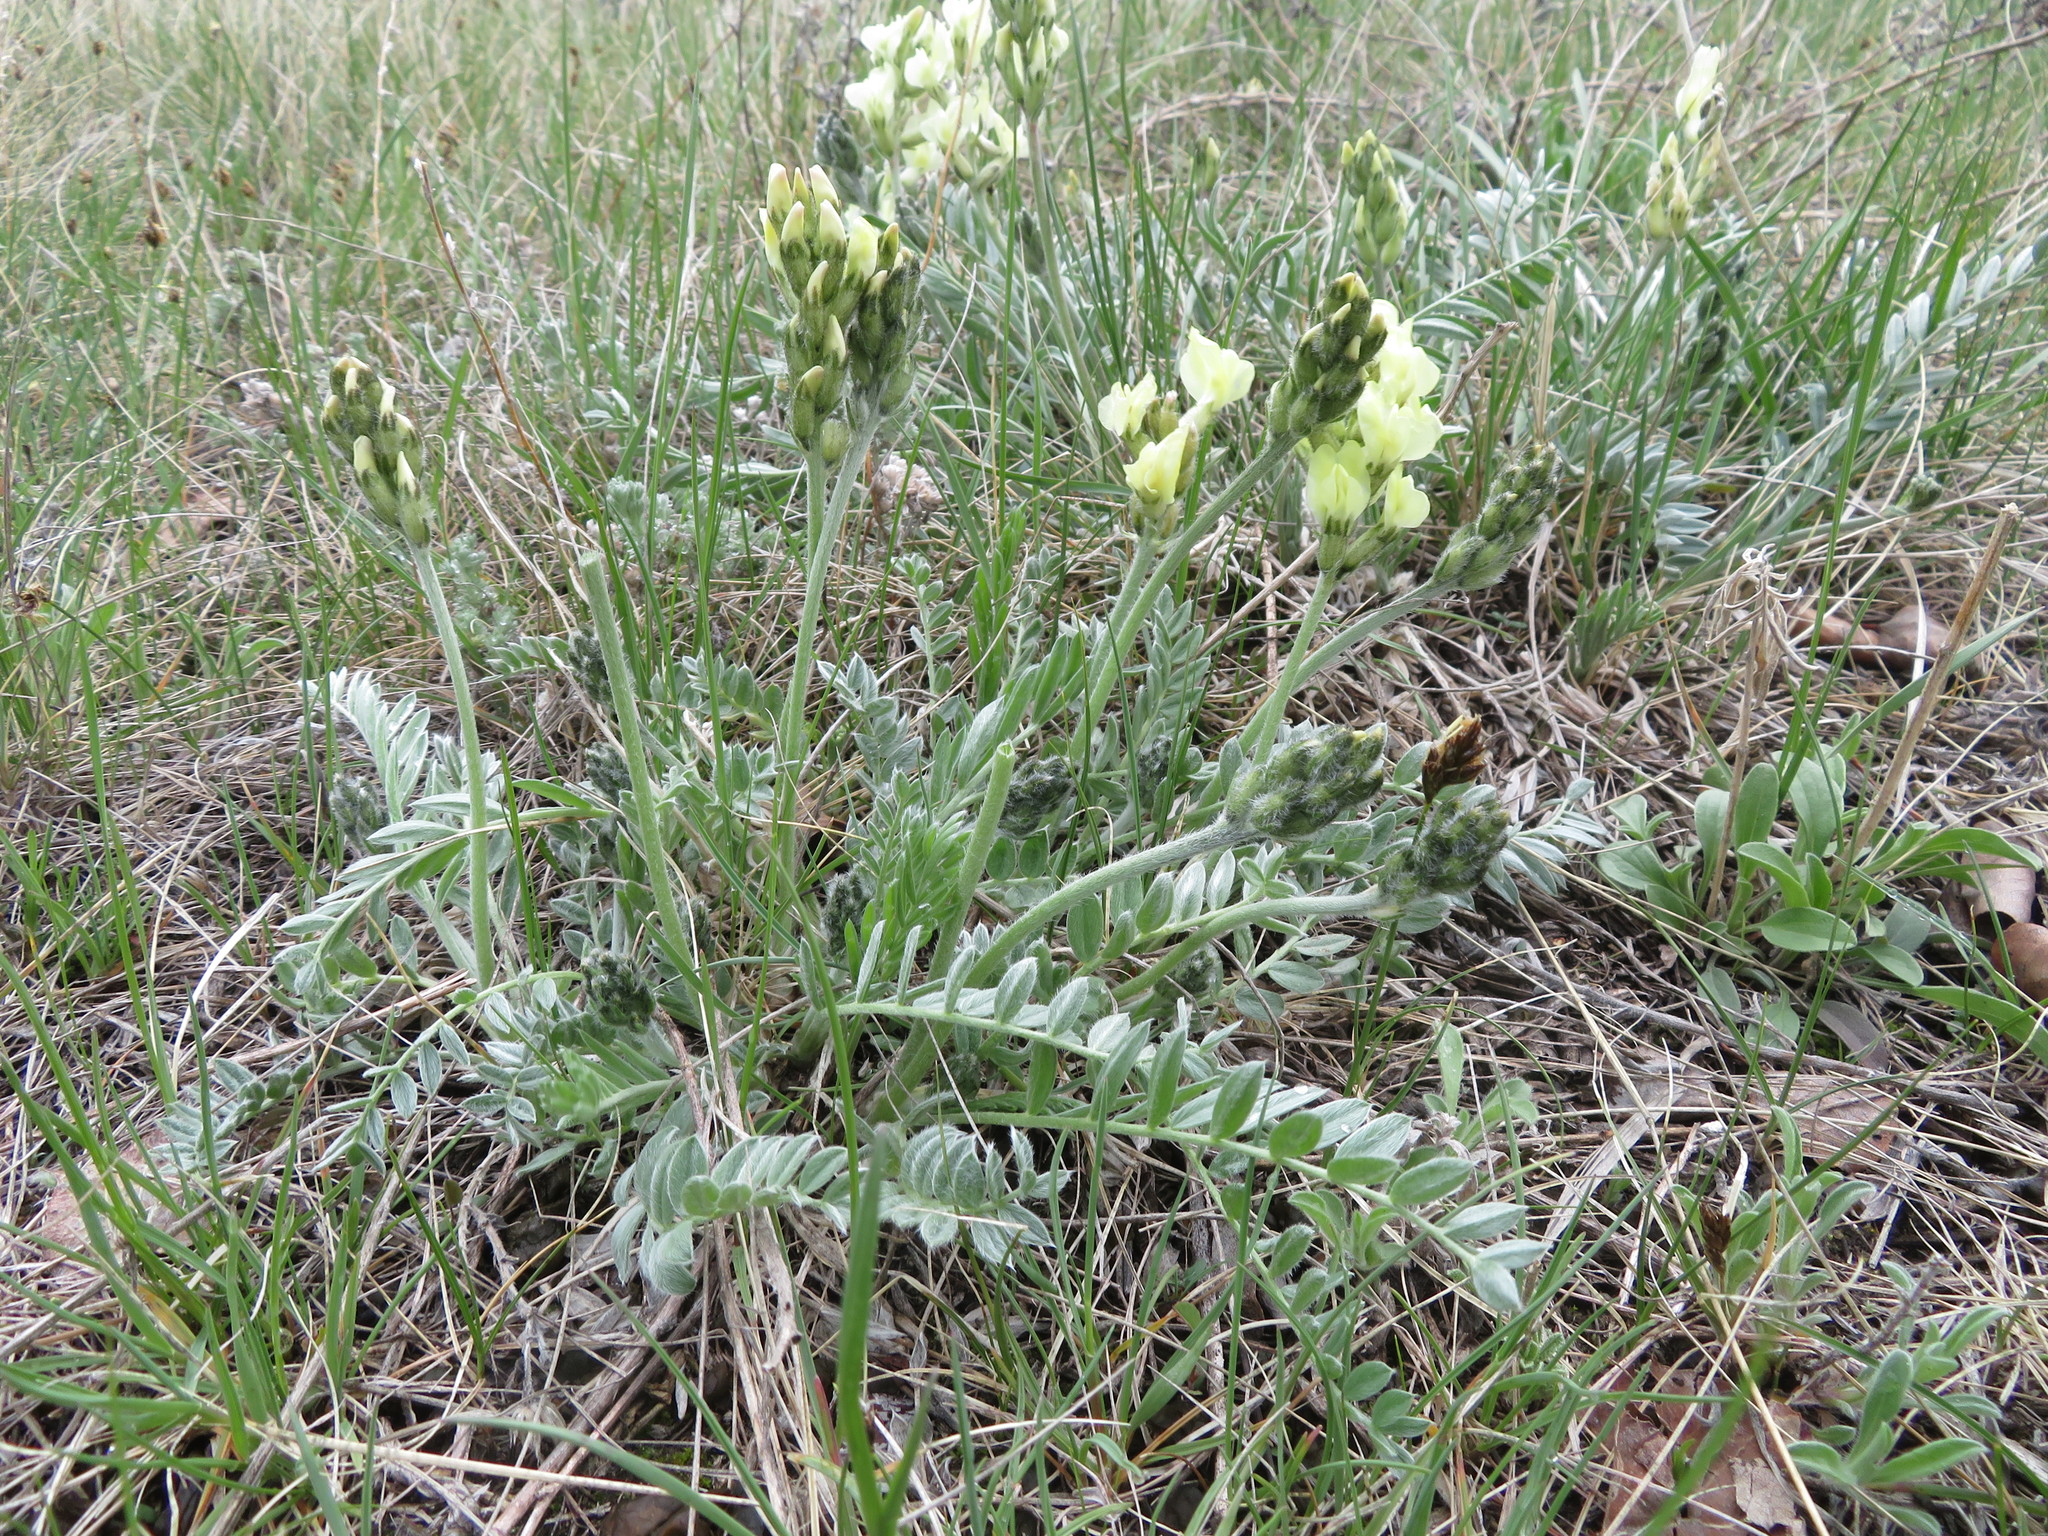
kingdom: Plantae
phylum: Tracheophyta
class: Magnoliopsida
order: Fabales
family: Fabaceae
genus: Oxytropis
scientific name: Oxytropis sericea
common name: Silky locoweed
